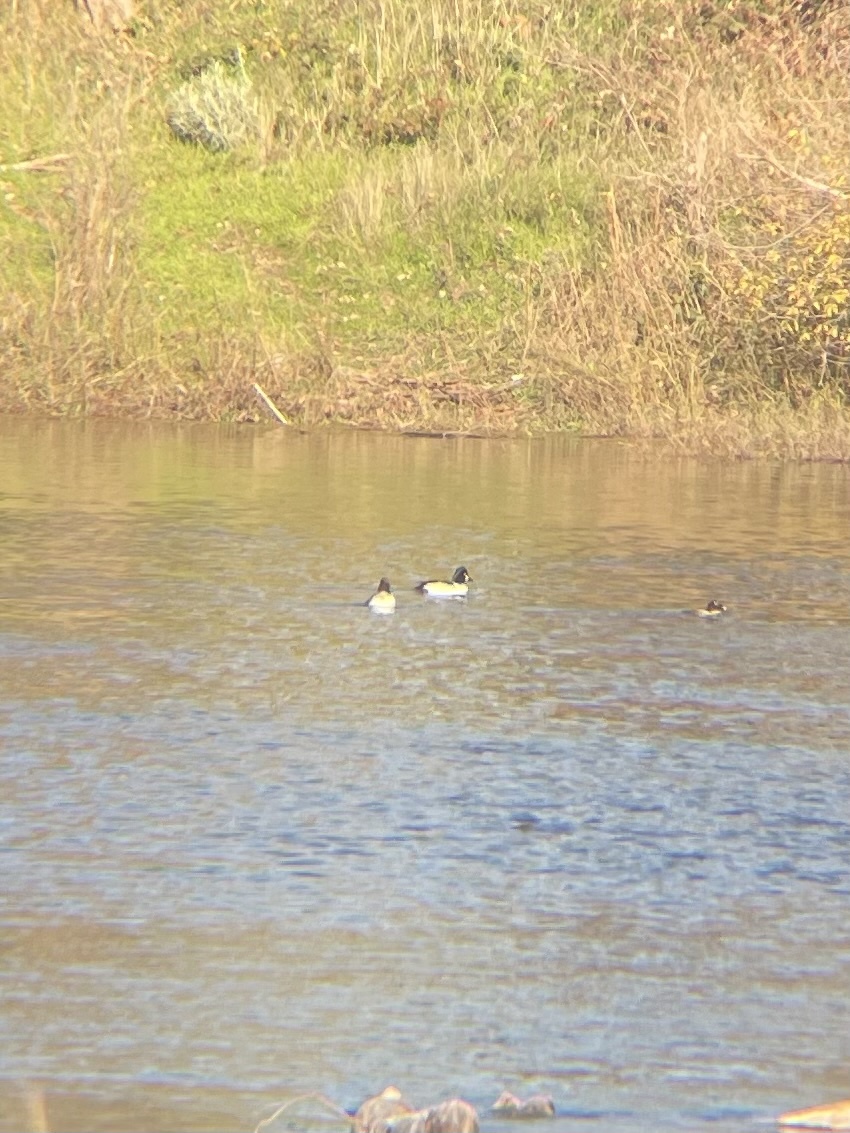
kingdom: Animalia
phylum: Chordata
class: Aves
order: Anseriformes
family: Anatidae
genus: Bucephala
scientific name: Bucephala clangula
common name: Common goldeneye
